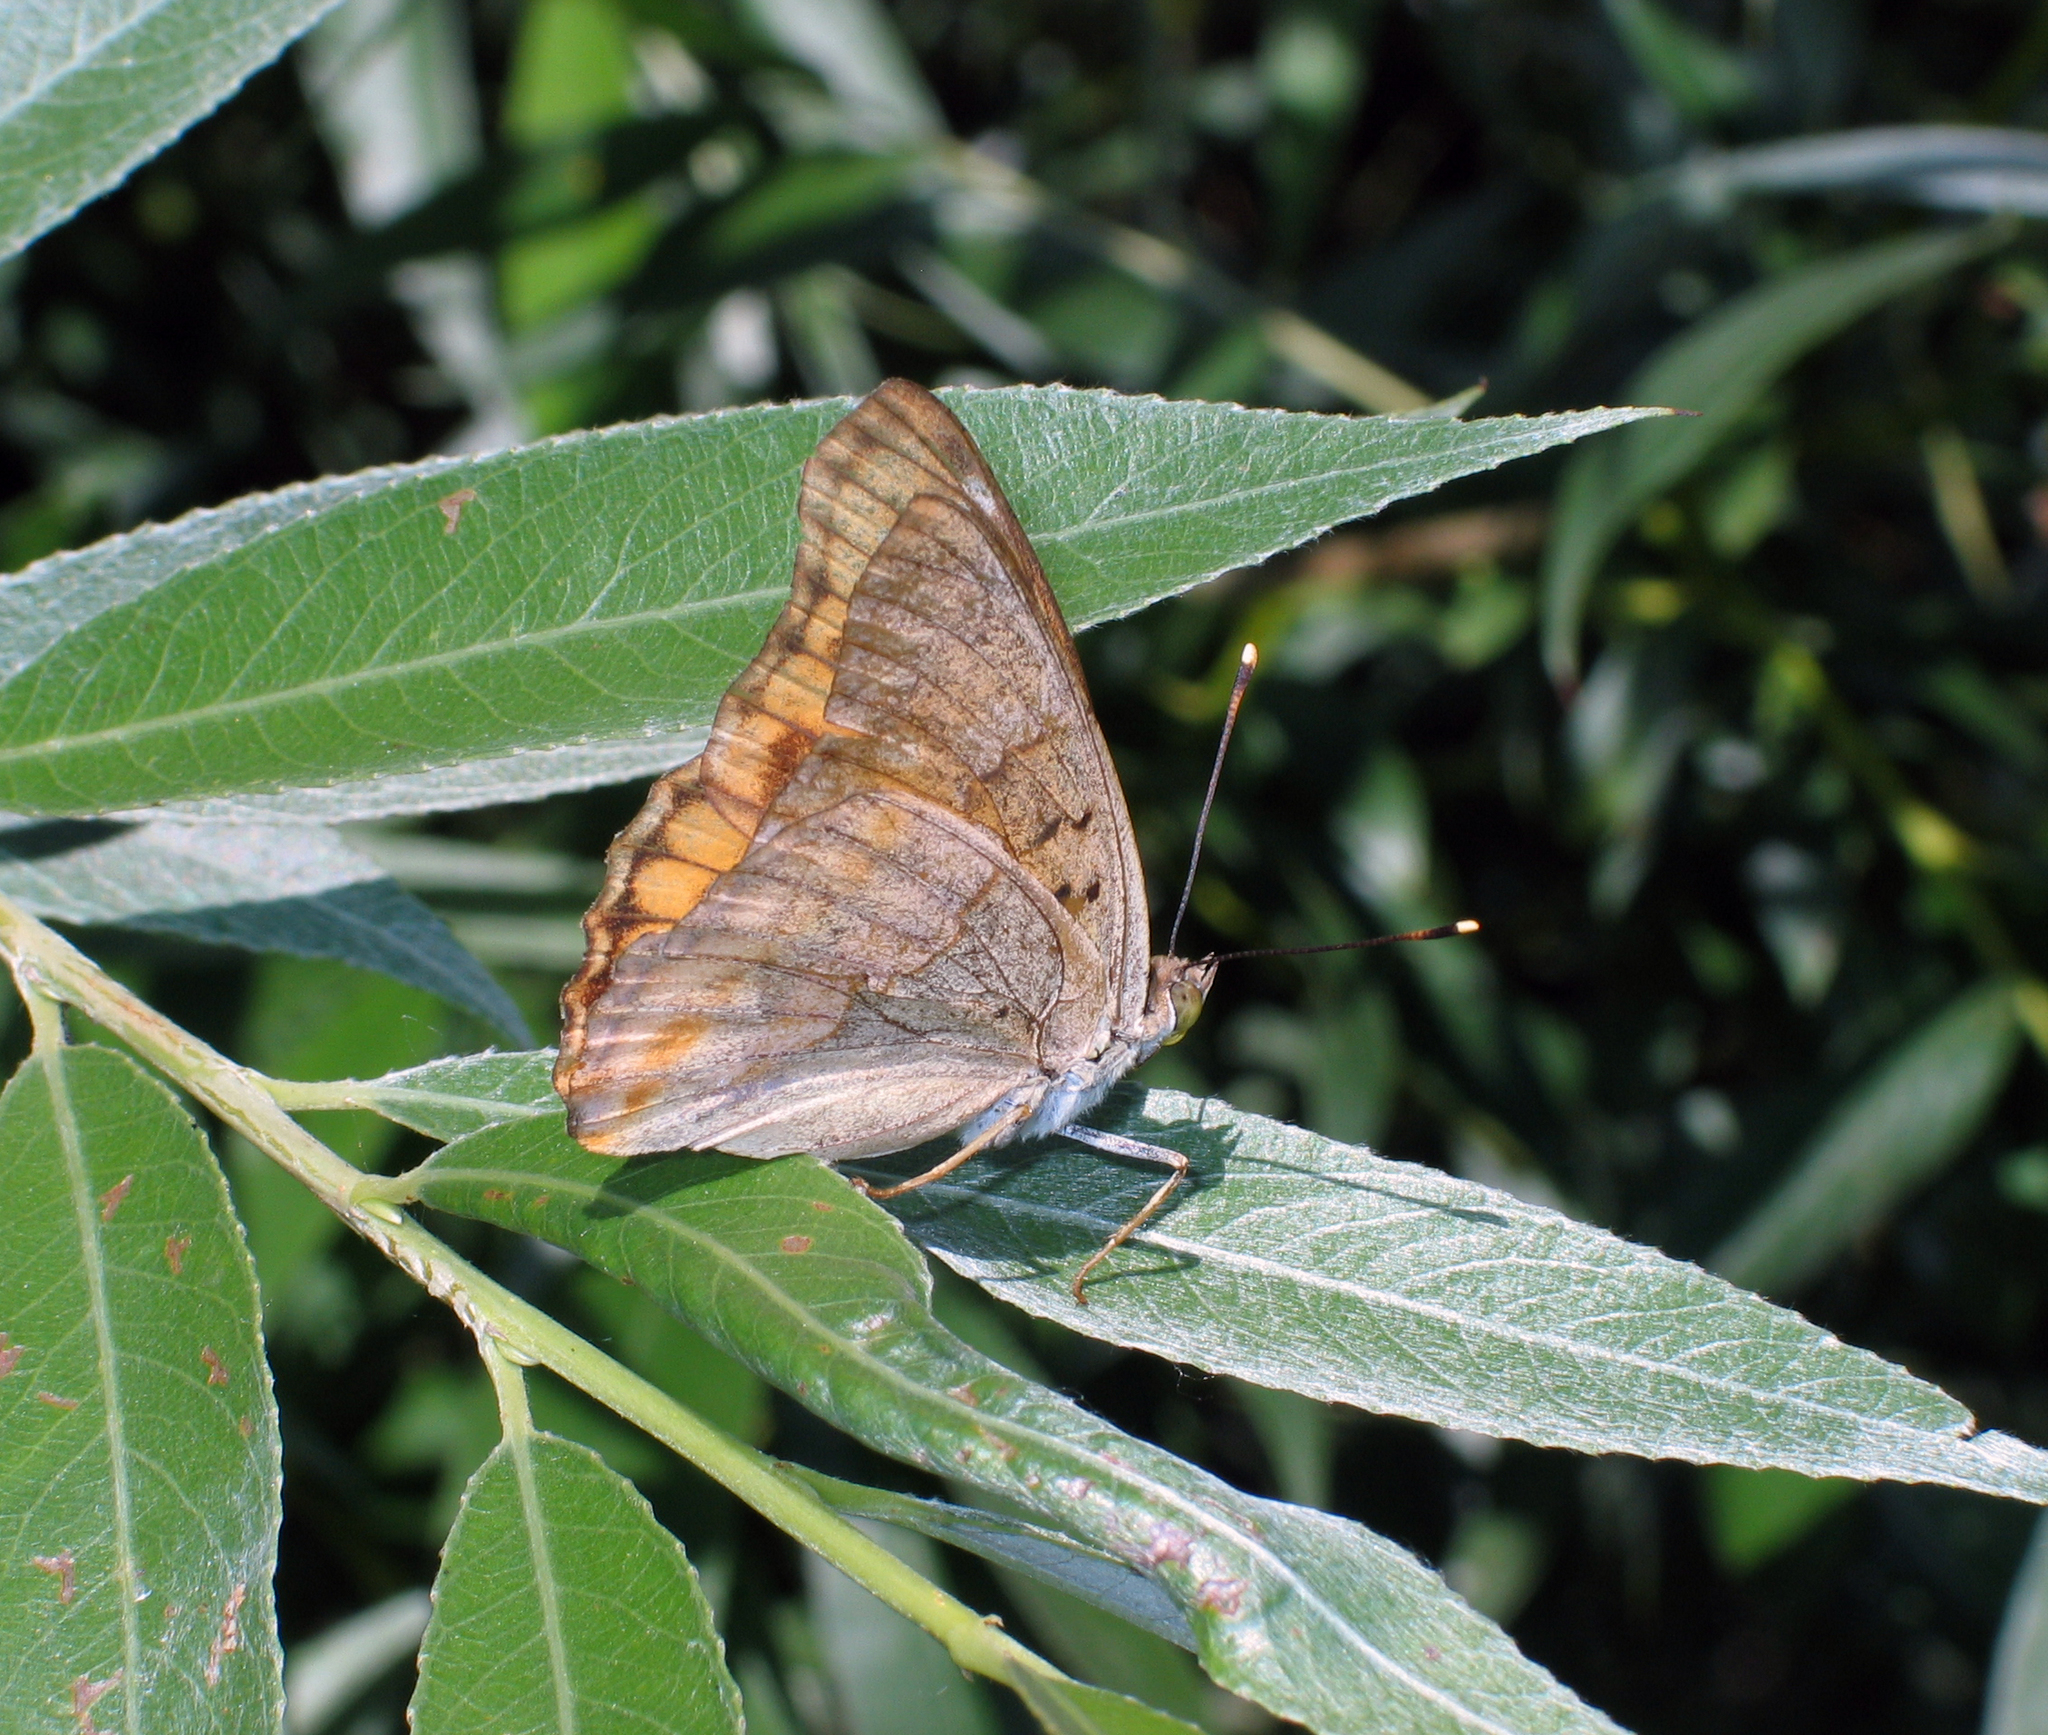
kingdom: Animalia
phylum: Arthropoda
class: Insecta
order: Lepidoptera
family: Nymphalidae
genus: Apatura
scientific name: Apatura ilia
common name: Lesser purple emperor
